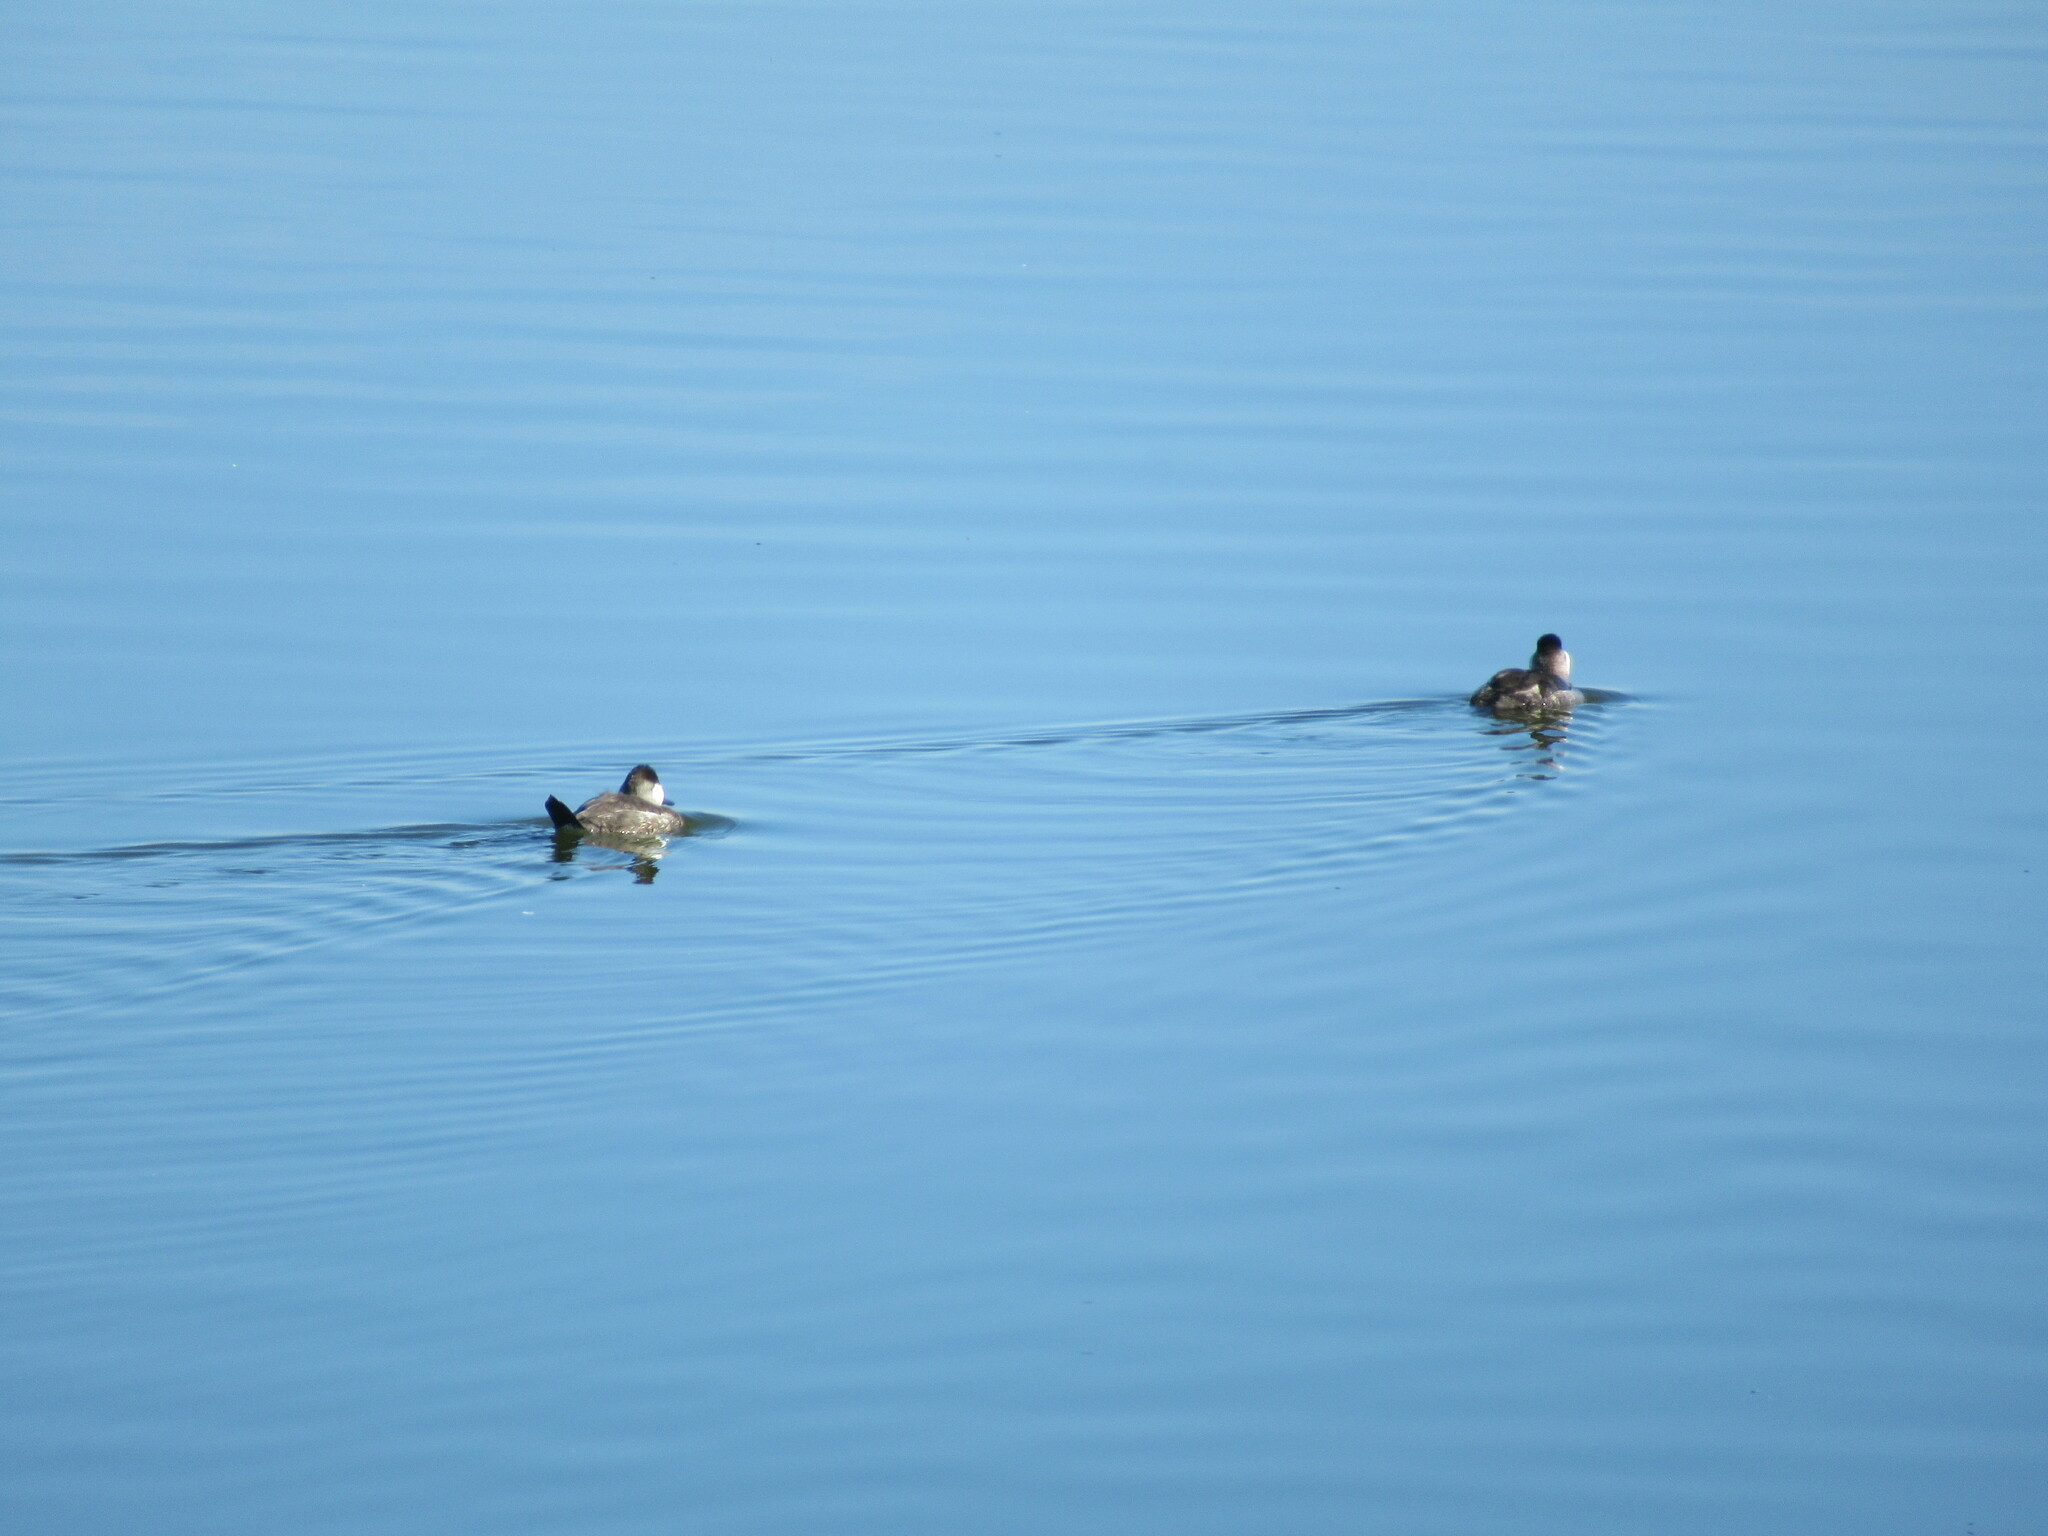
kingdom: Animalia
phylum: Chordata
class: Aves
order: Anseriformes
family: Anatidae
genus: Oxyura
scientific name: Oxyura jamaicensis
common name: Ruddy duck
